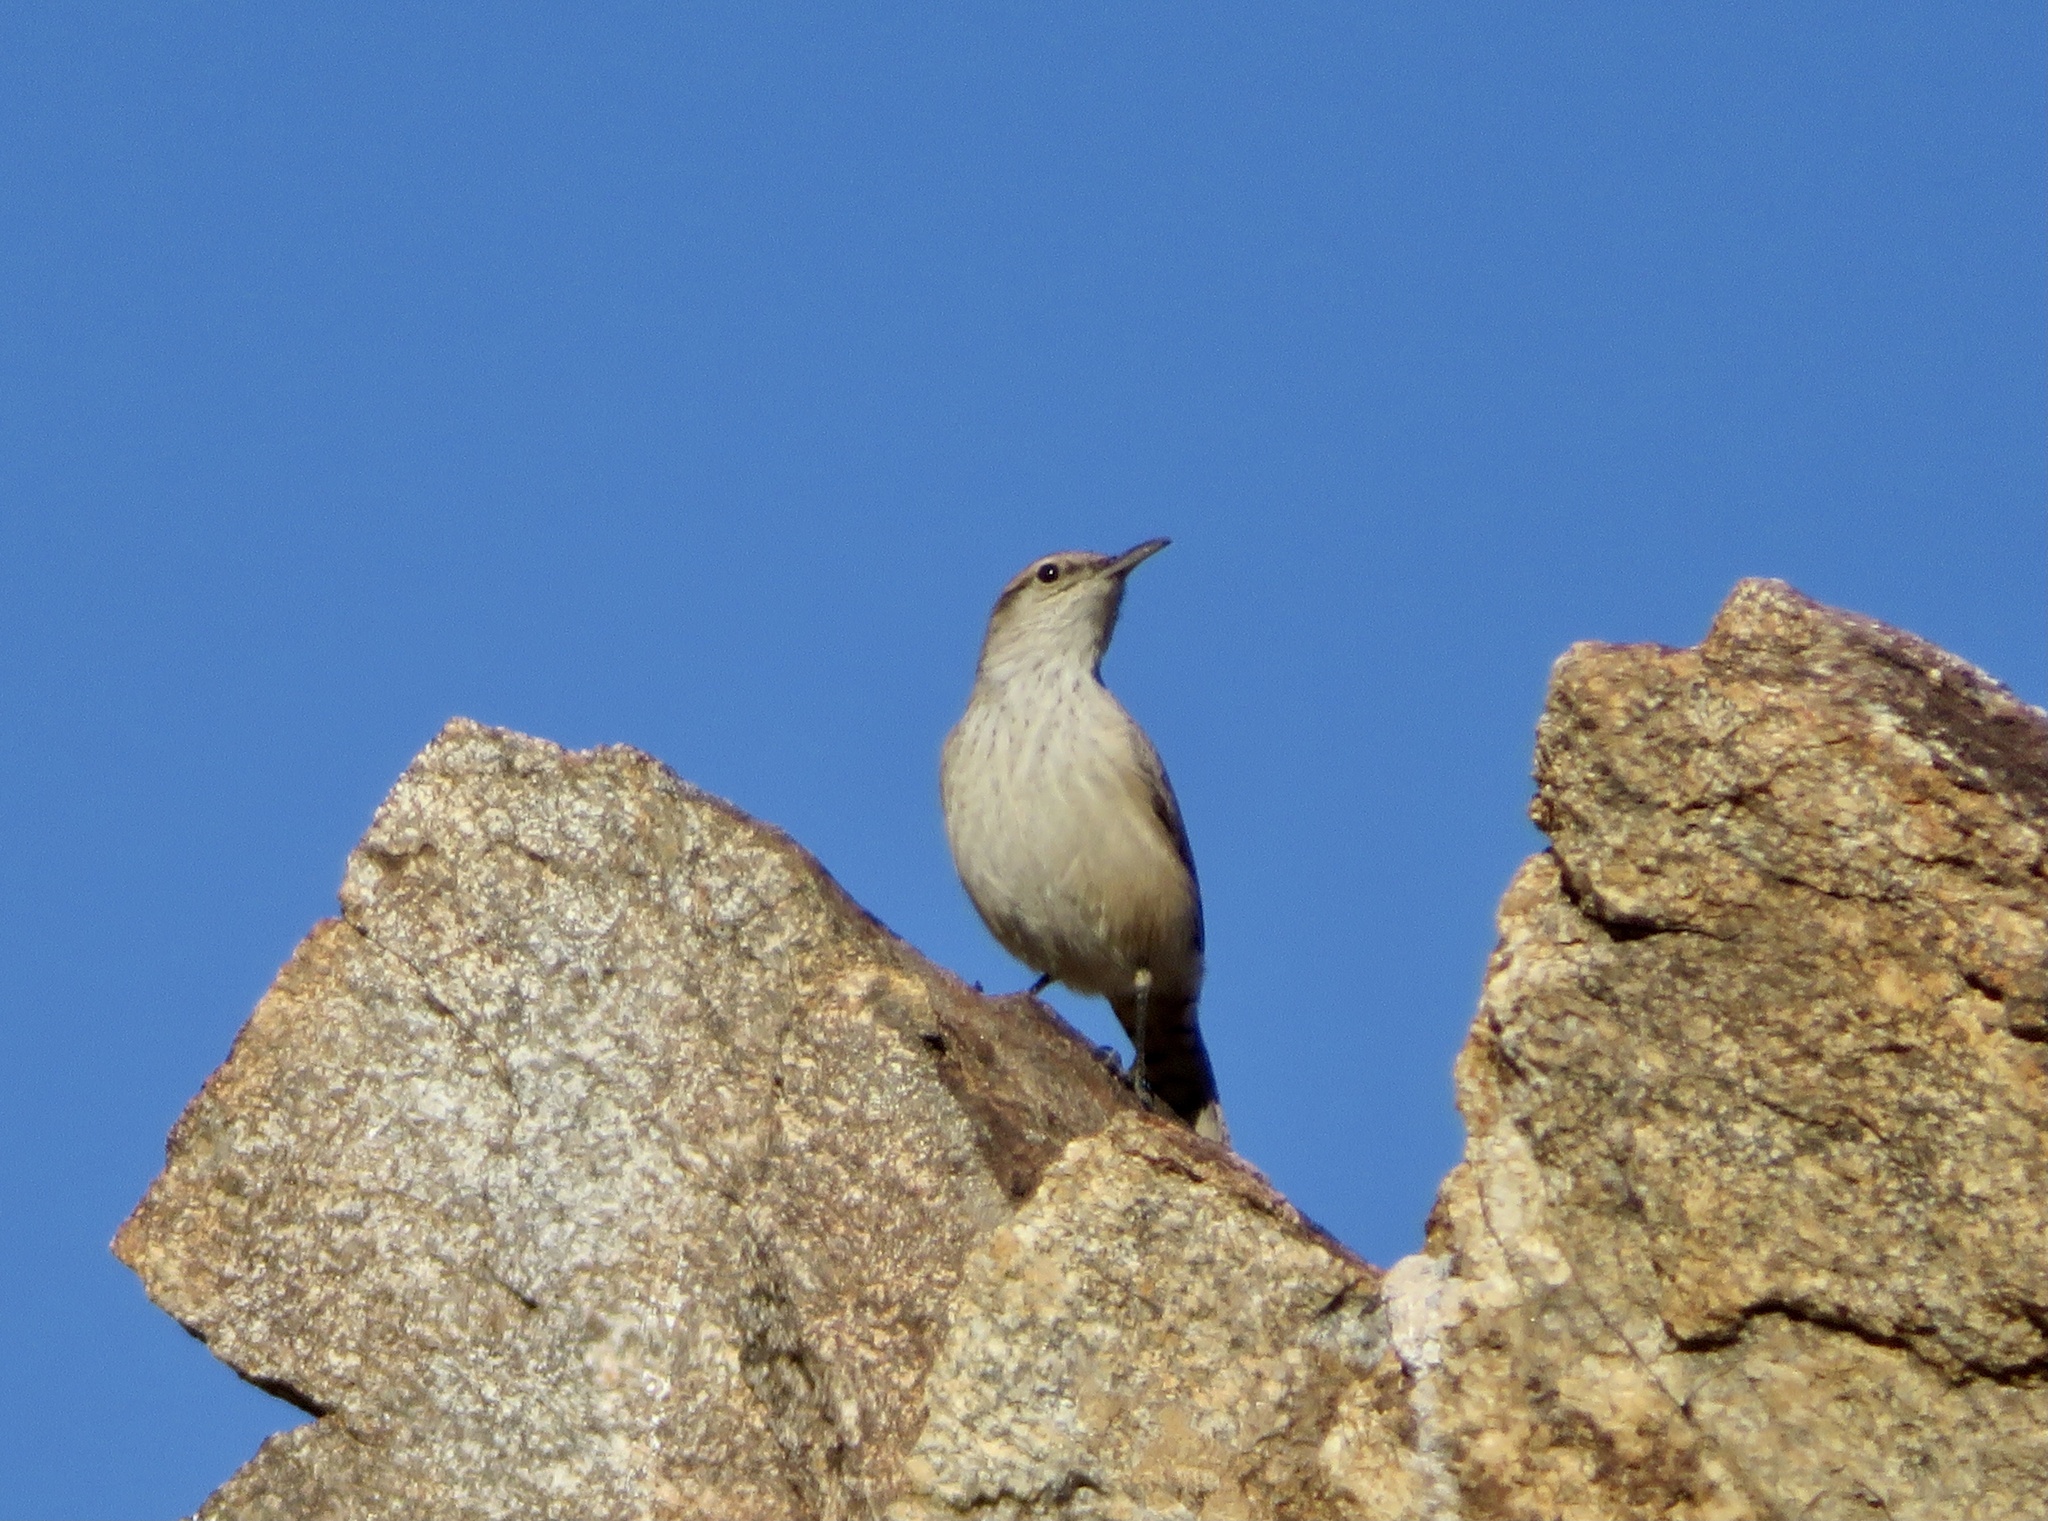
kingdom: Animalia
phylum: Chordata
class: Aves
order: Passeriformes
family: Troglodytidae
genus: Salpinctes
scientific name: Salpinctes obsoletus
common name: Rock wren
